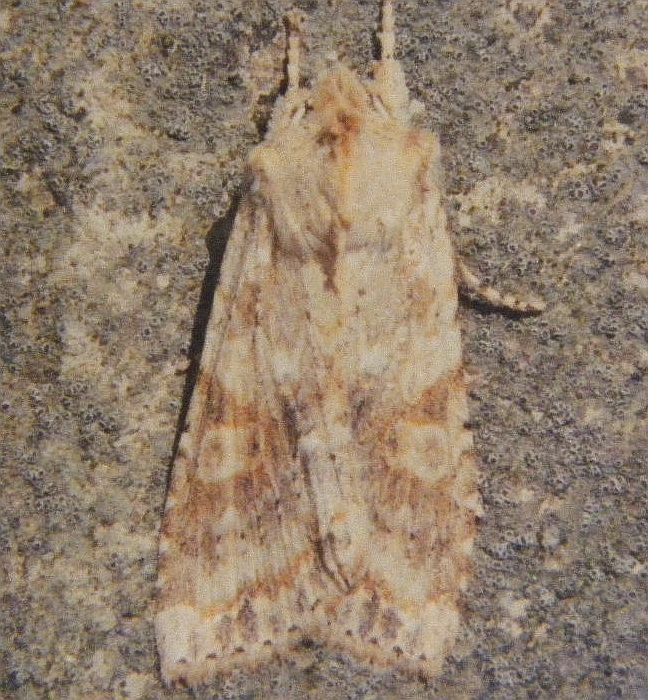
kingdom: Animalia
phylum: Arthropoda
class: Insecta
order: Lepidoptera
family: Noctuidae
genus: Lithophane
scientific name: Lithophane bethunei
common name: Bethune's pinion moth
